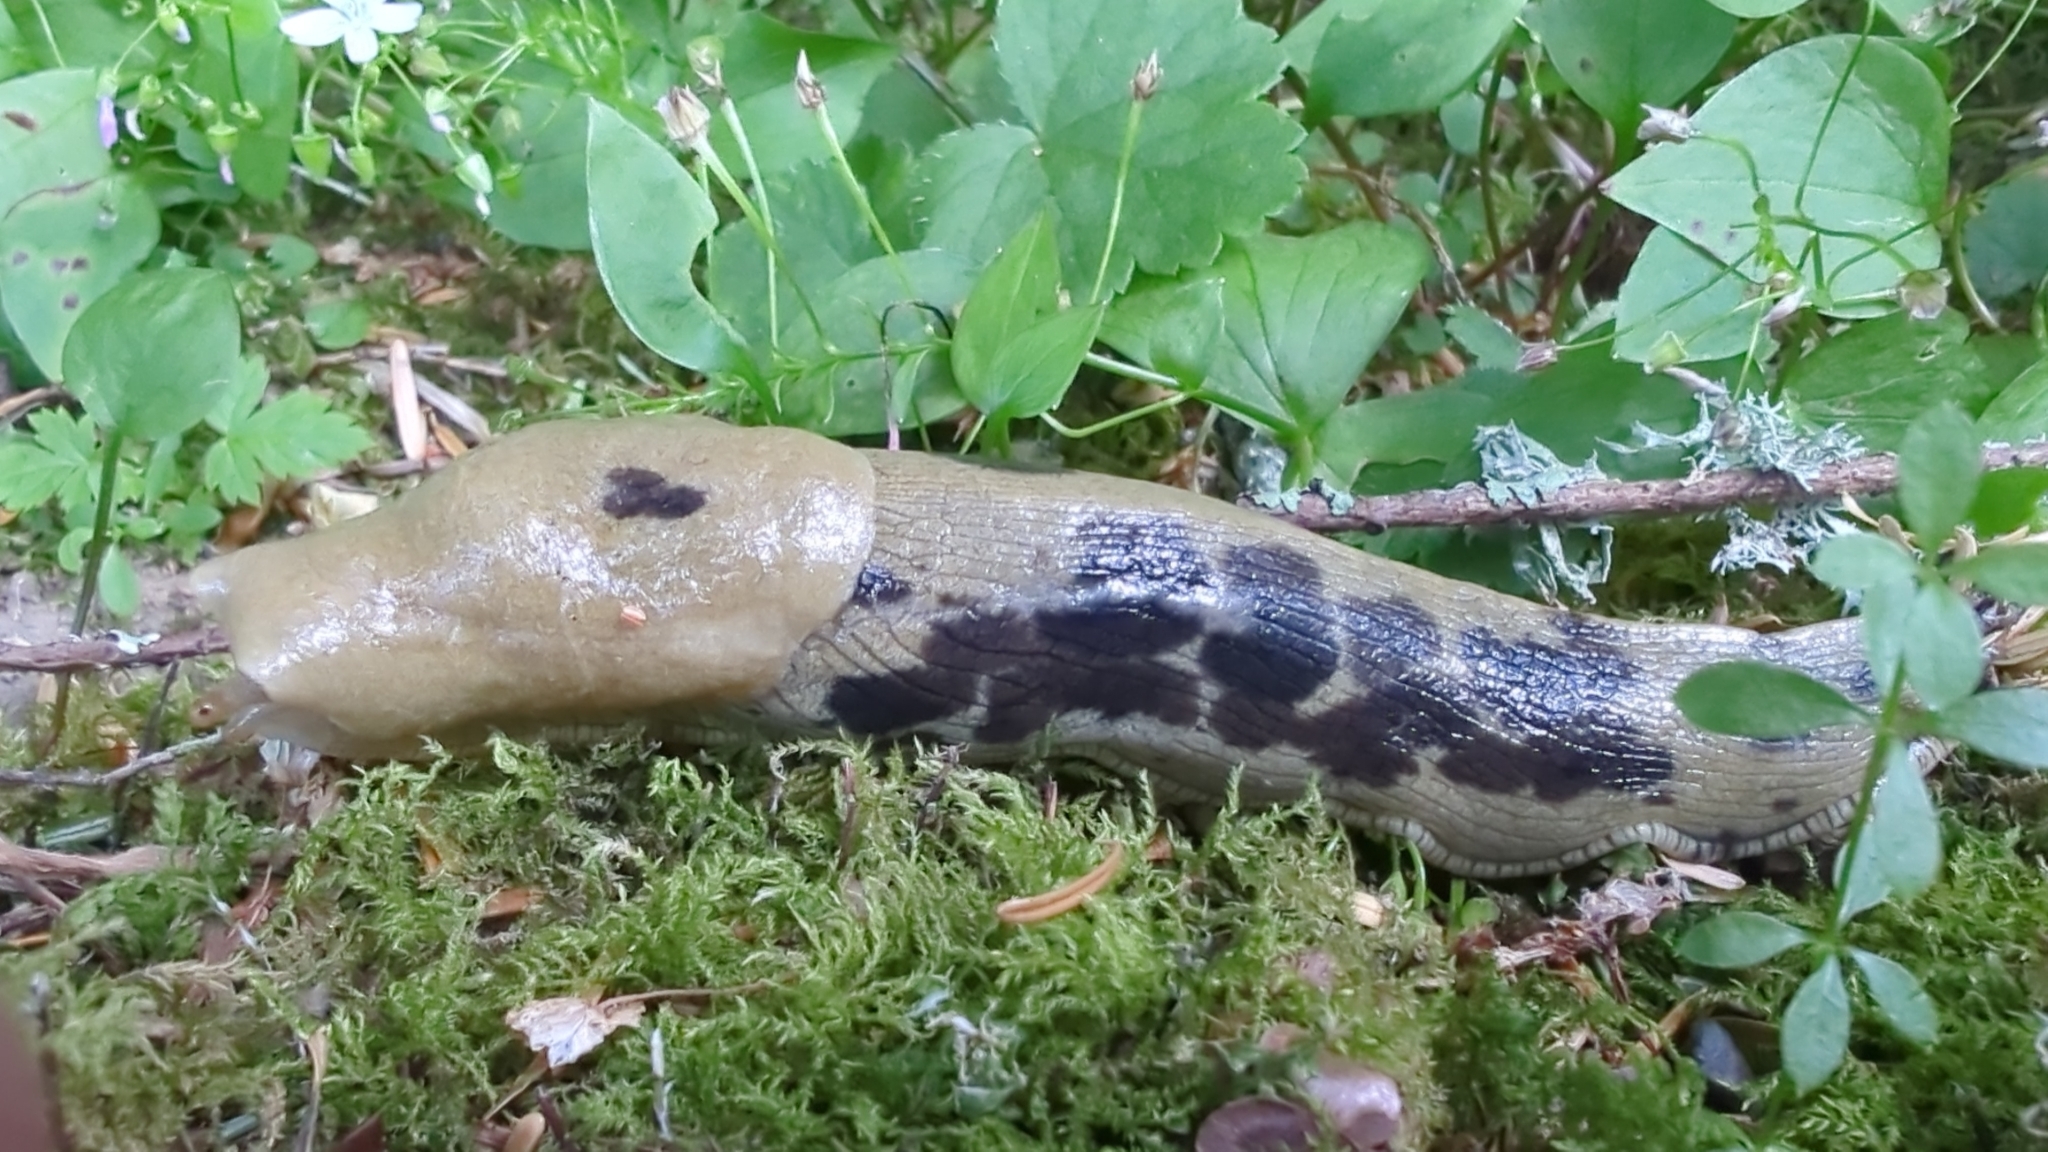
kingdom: Animalia
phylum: Mollusca
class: Gastropoda
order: Stylommatophora
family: Ariolimacidae
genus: Ariolimax
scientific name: Ariolimax columbianus
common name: Pacific banana slug
